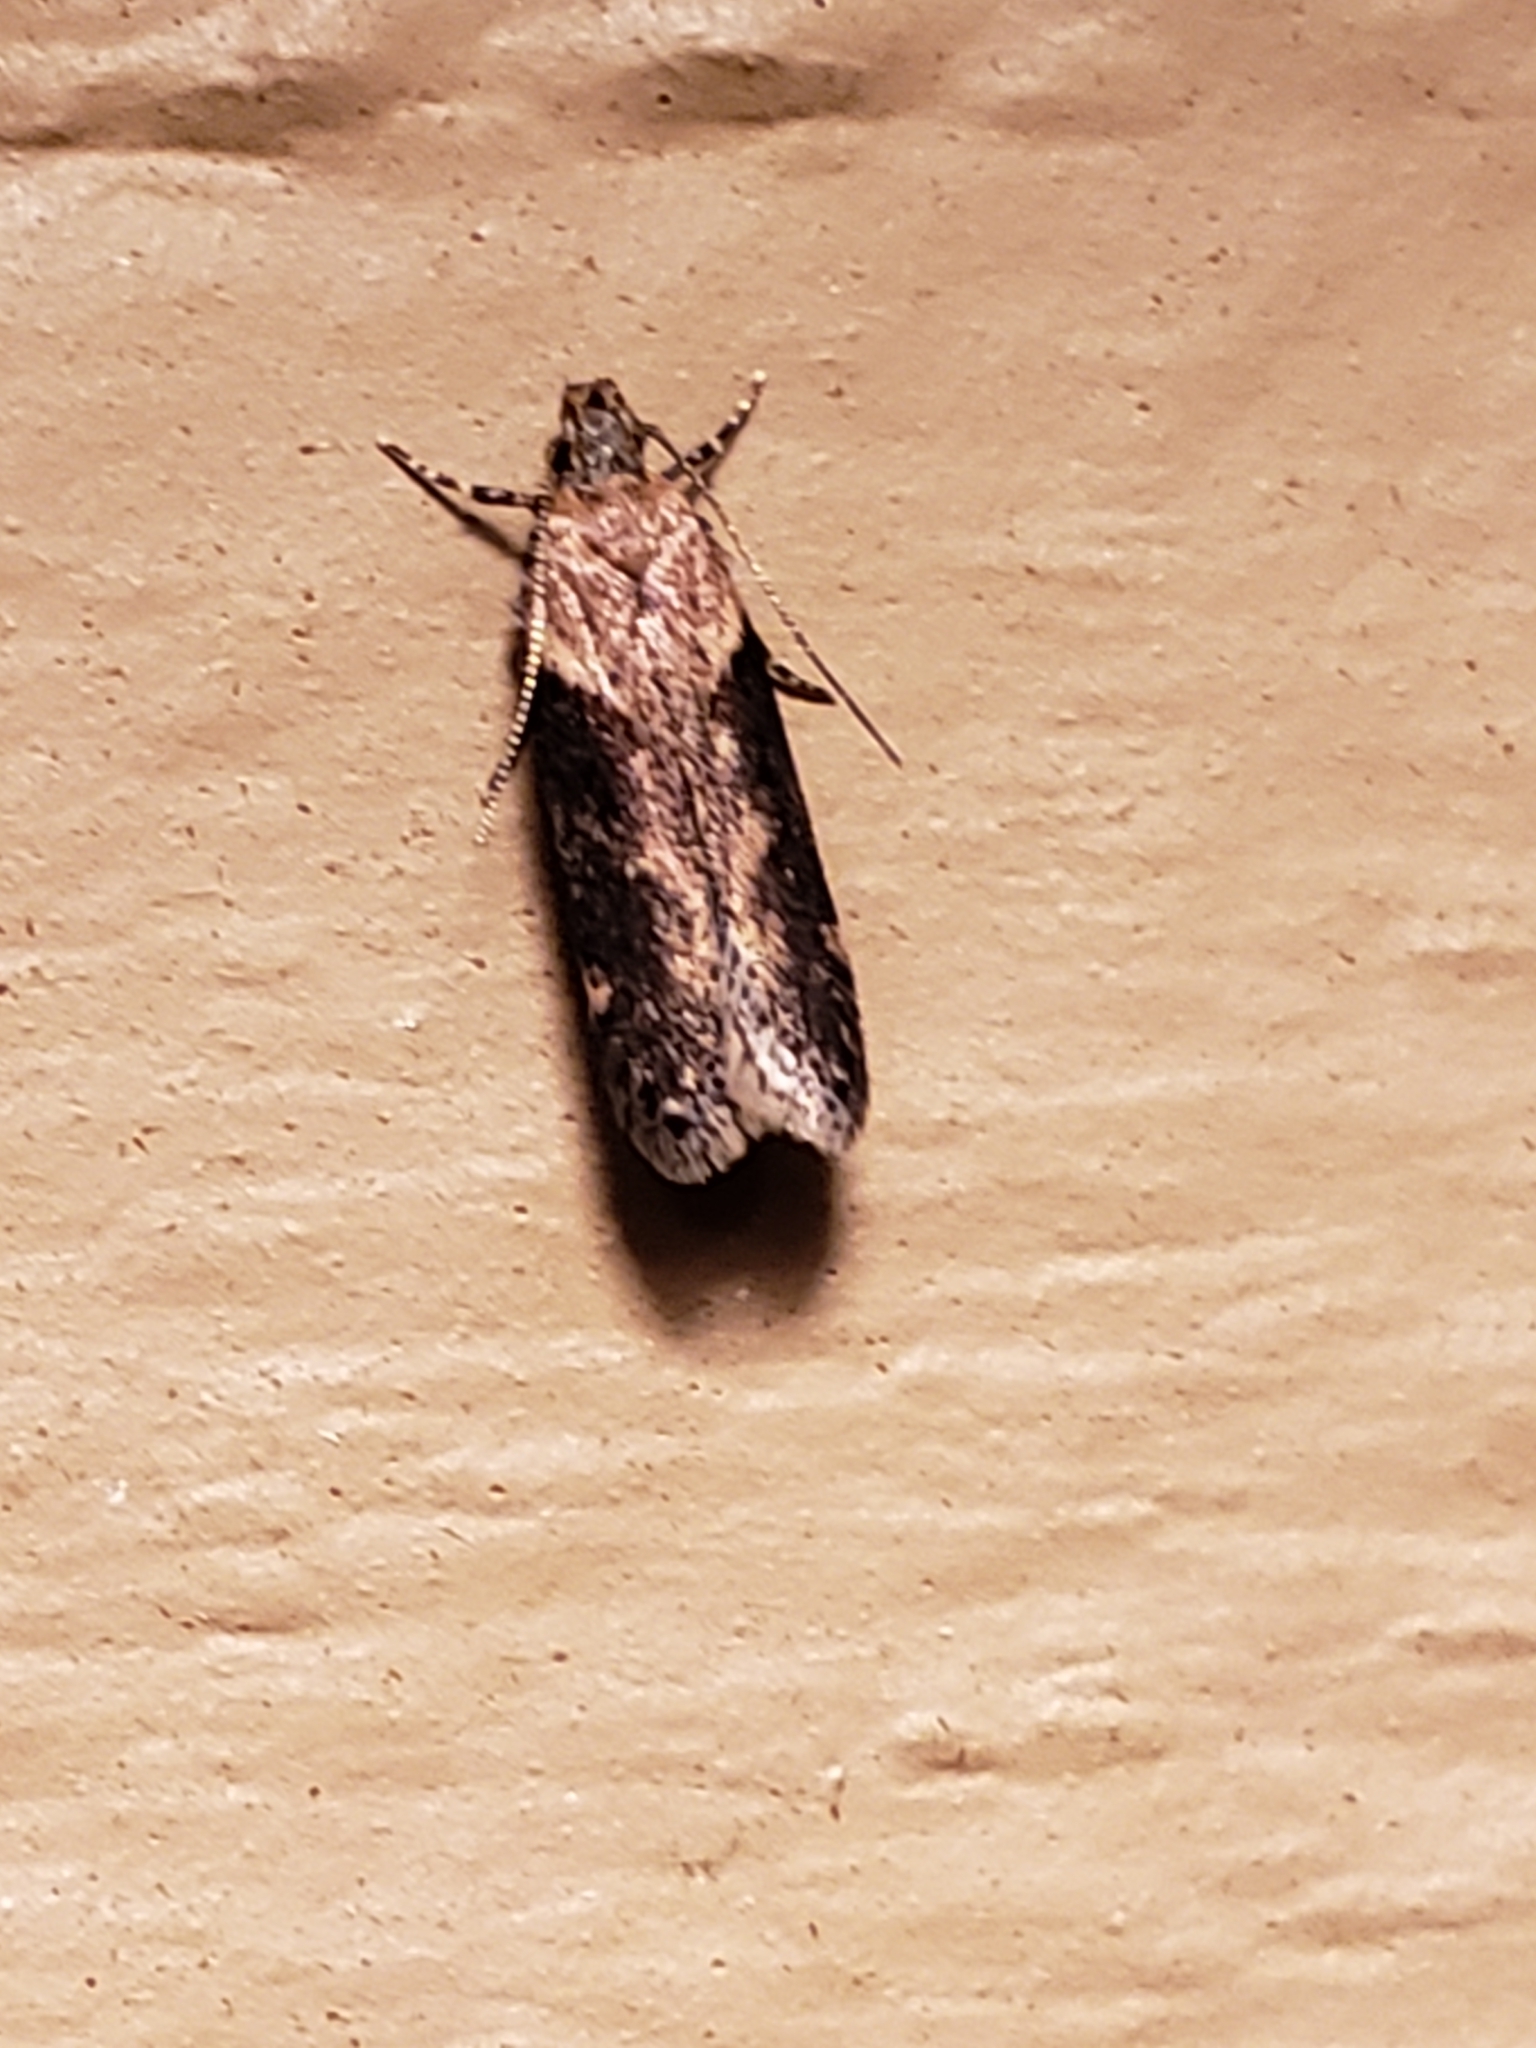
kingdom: Animalia
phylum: Arthropoda
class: Insecta
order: Lepidoptera
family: Gelechiidae
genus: Chionodes
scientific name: Chionodes mediofuscella
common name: Black-smudged chionodes moth
